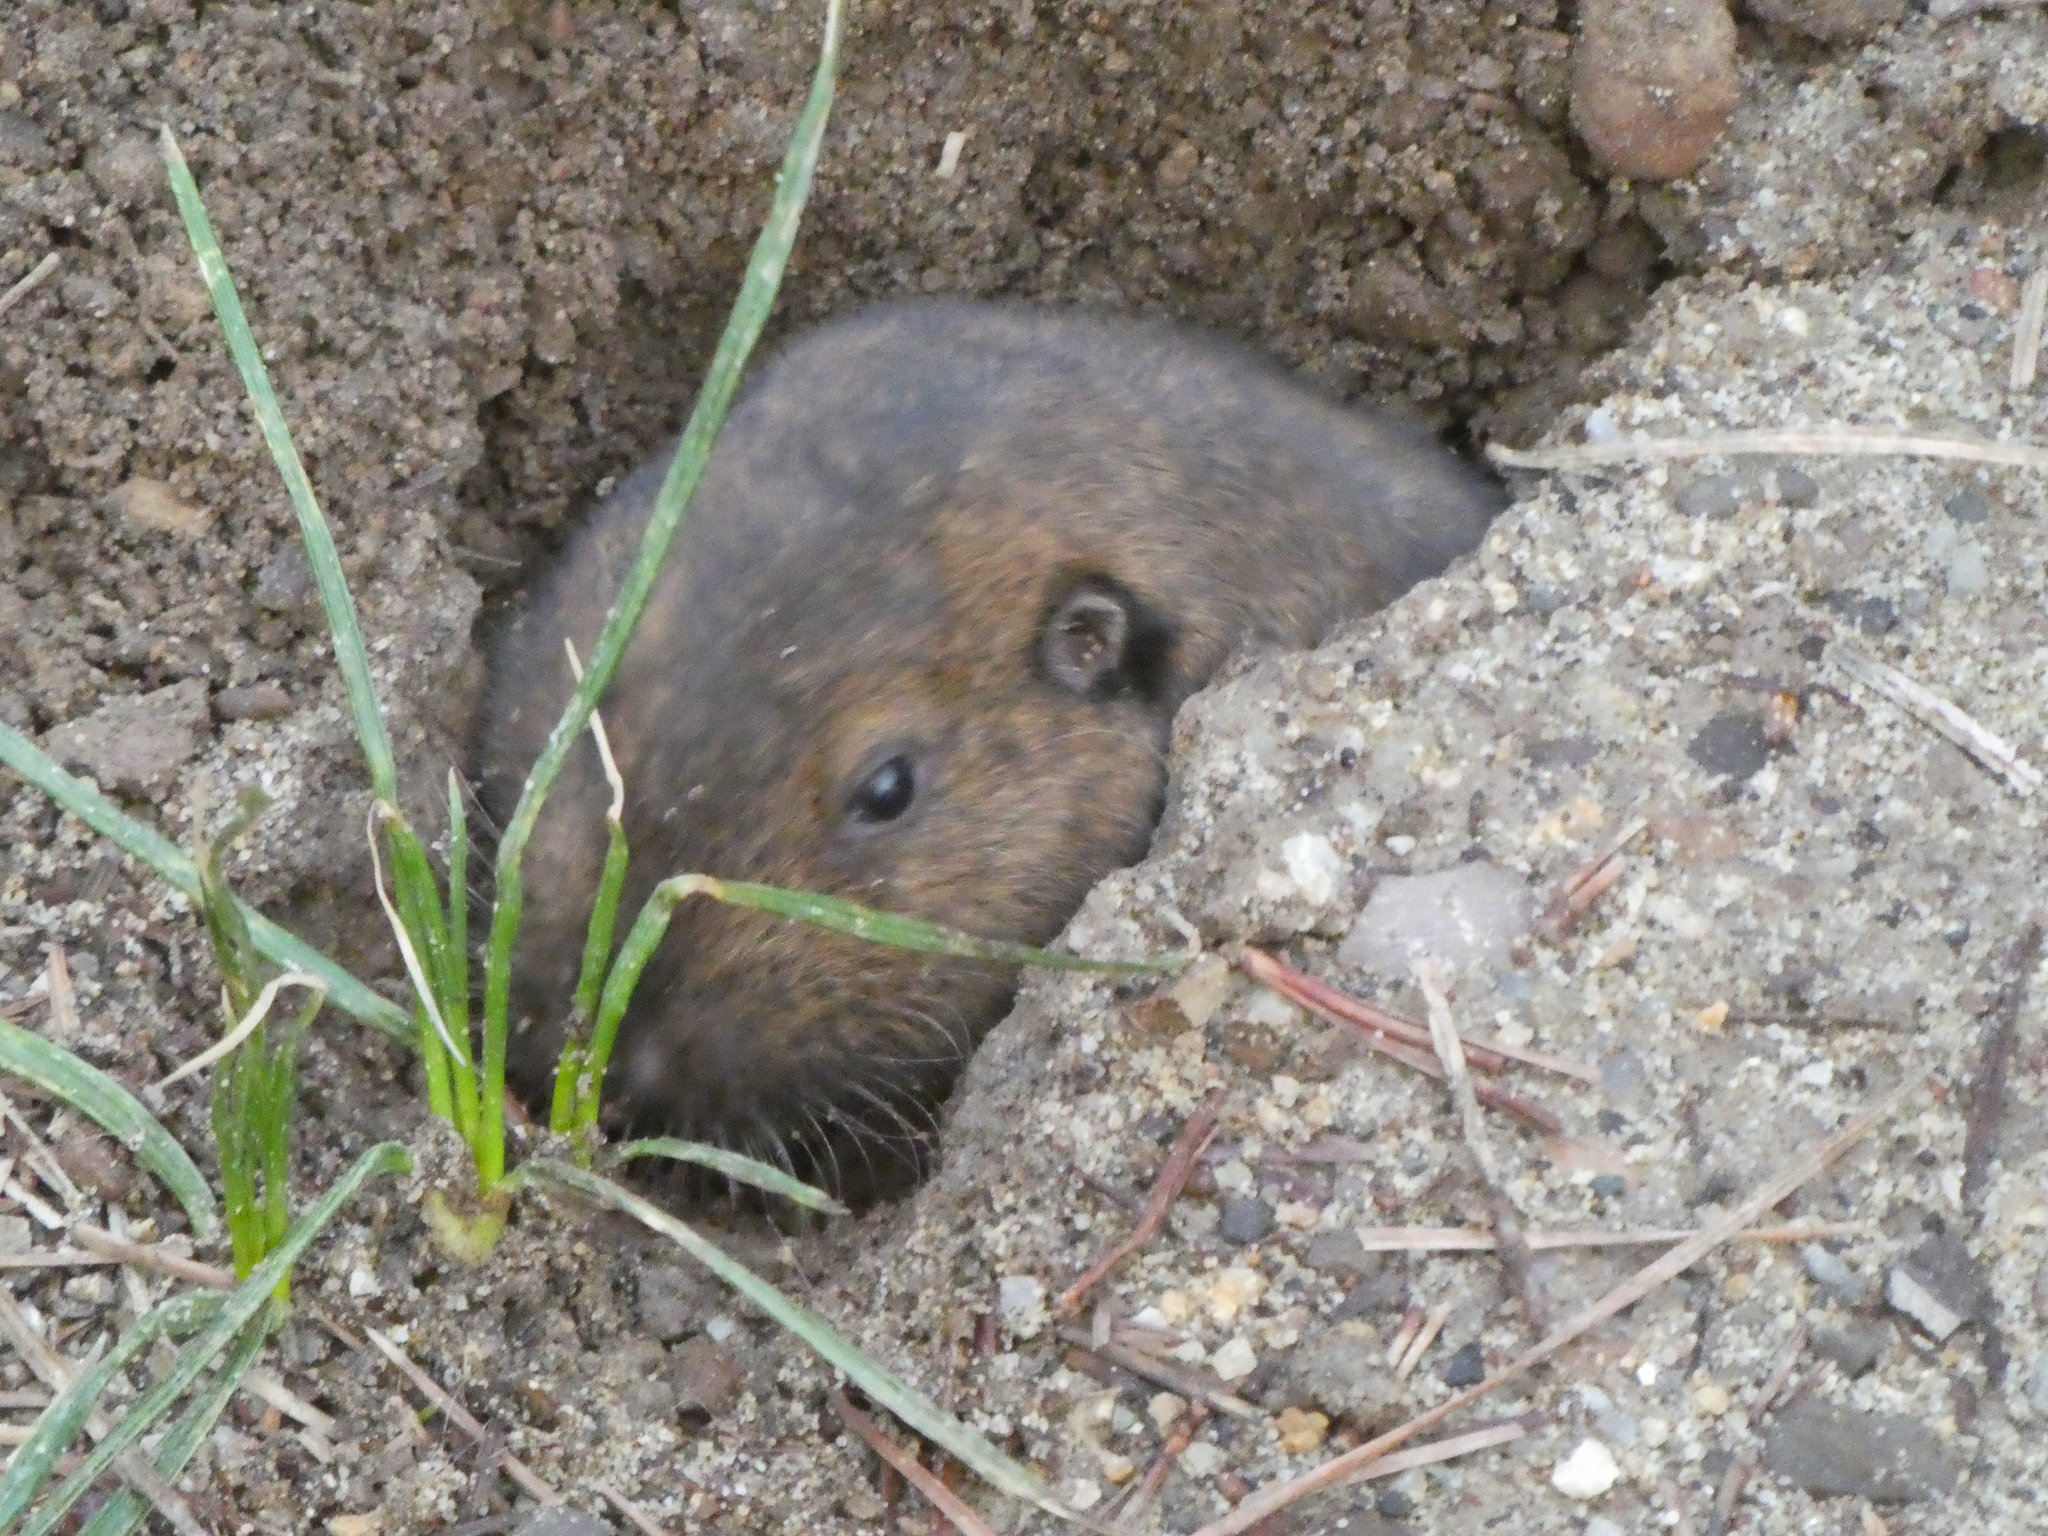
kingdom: Animalia
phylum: Chordata
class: Mammalia
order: Rodentia
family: Geomyidae
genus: Thomomys
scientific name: Thomomys bottae
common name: Botta's pocket gopher
